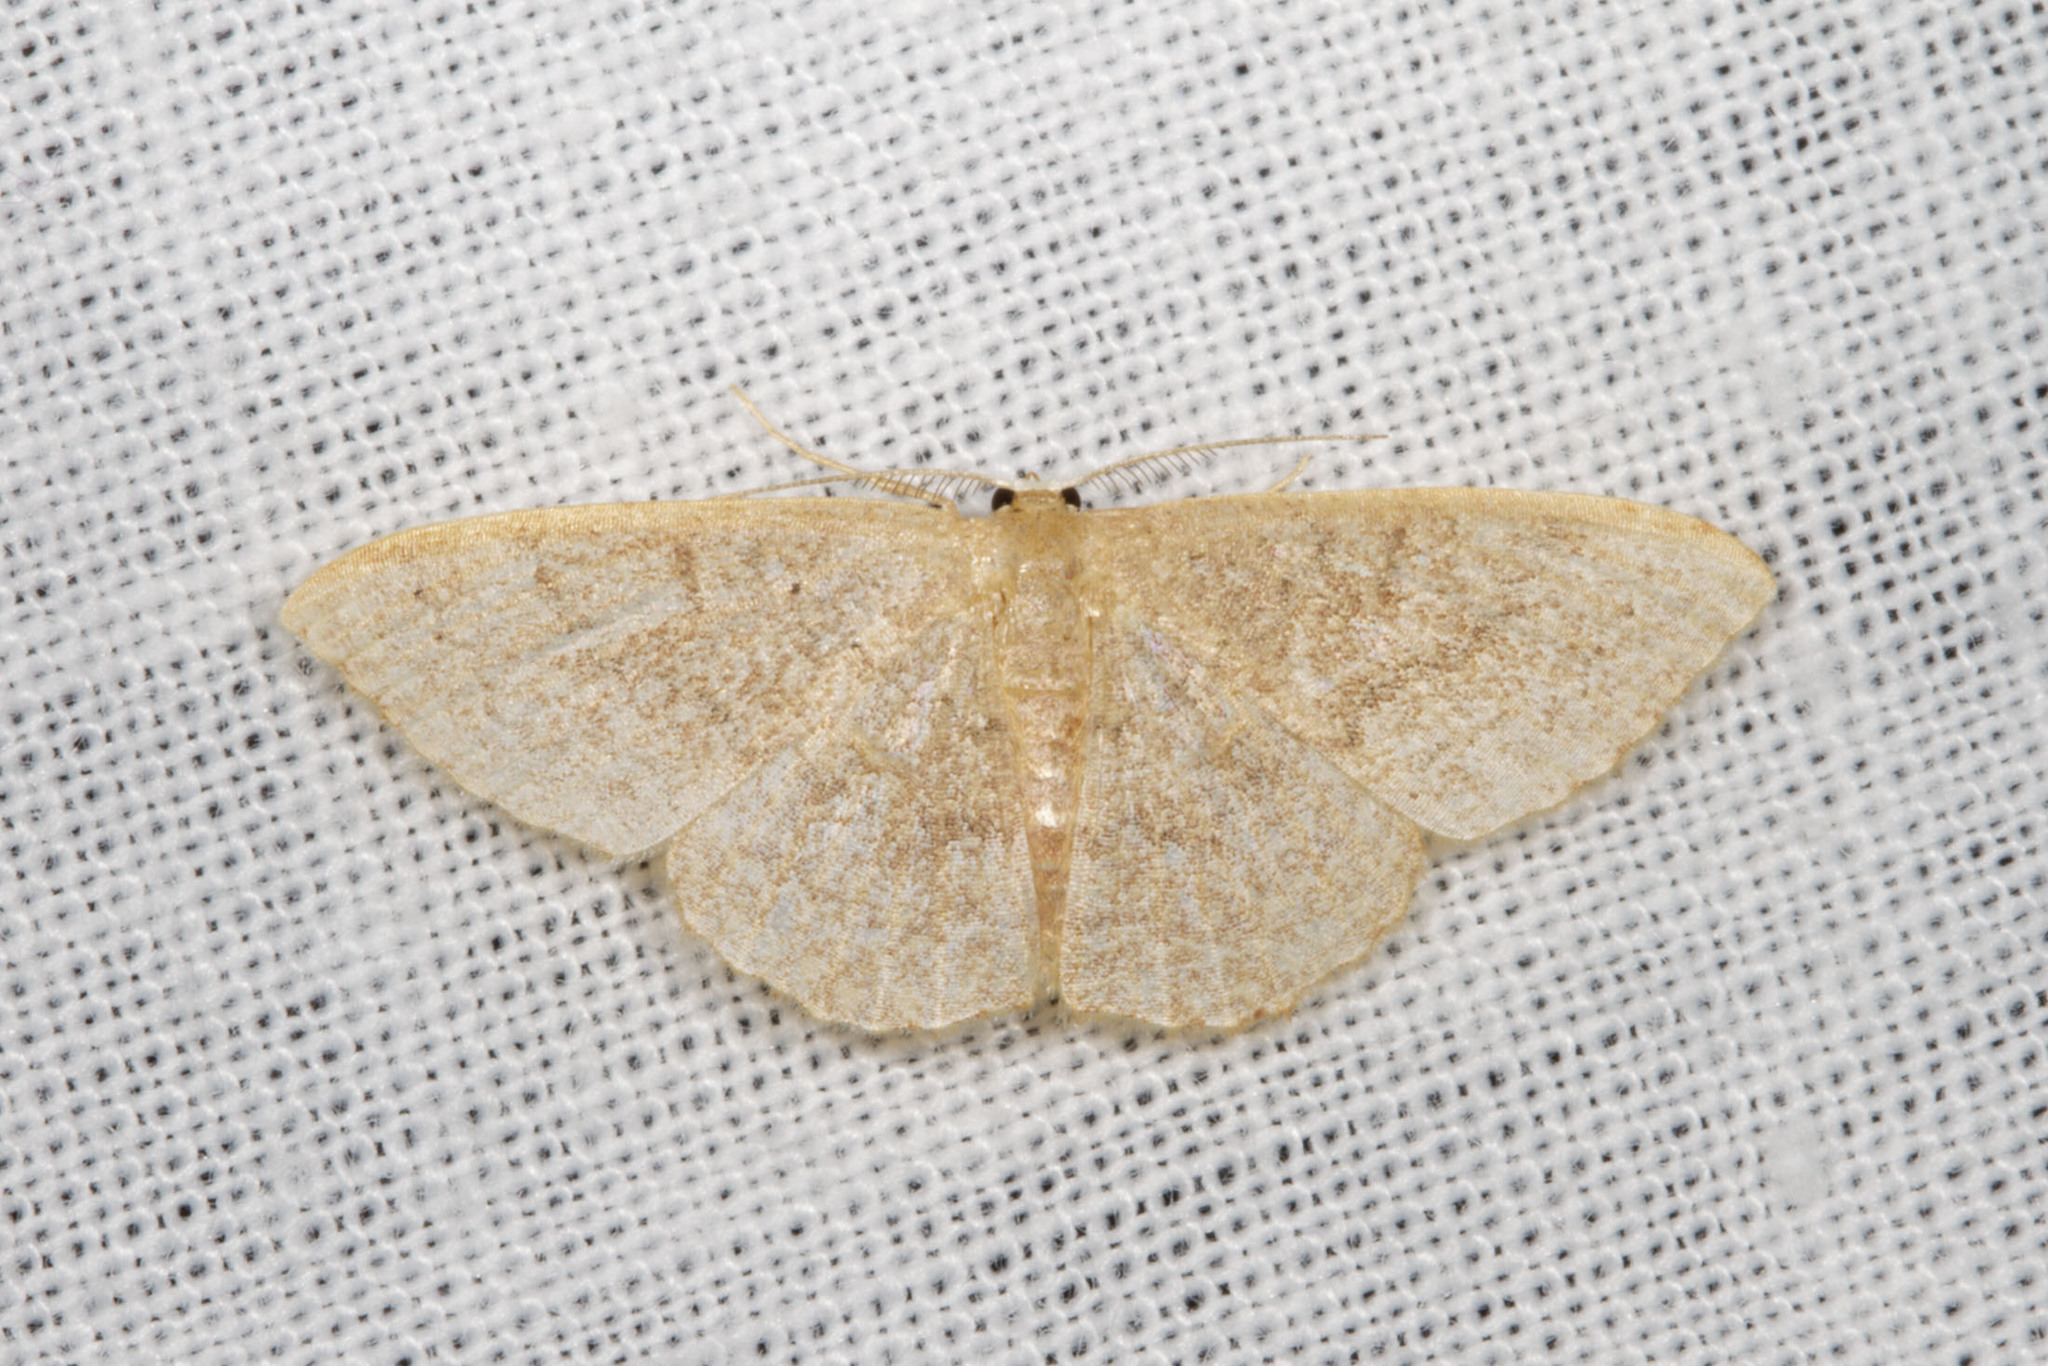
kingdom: Animalia
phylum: Arthropoda
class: Insecta
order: Lepidoptera
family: Geometridae
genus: Pleuroprucha
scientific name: Pleuroprucha insulsaria
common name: Common tan wave
